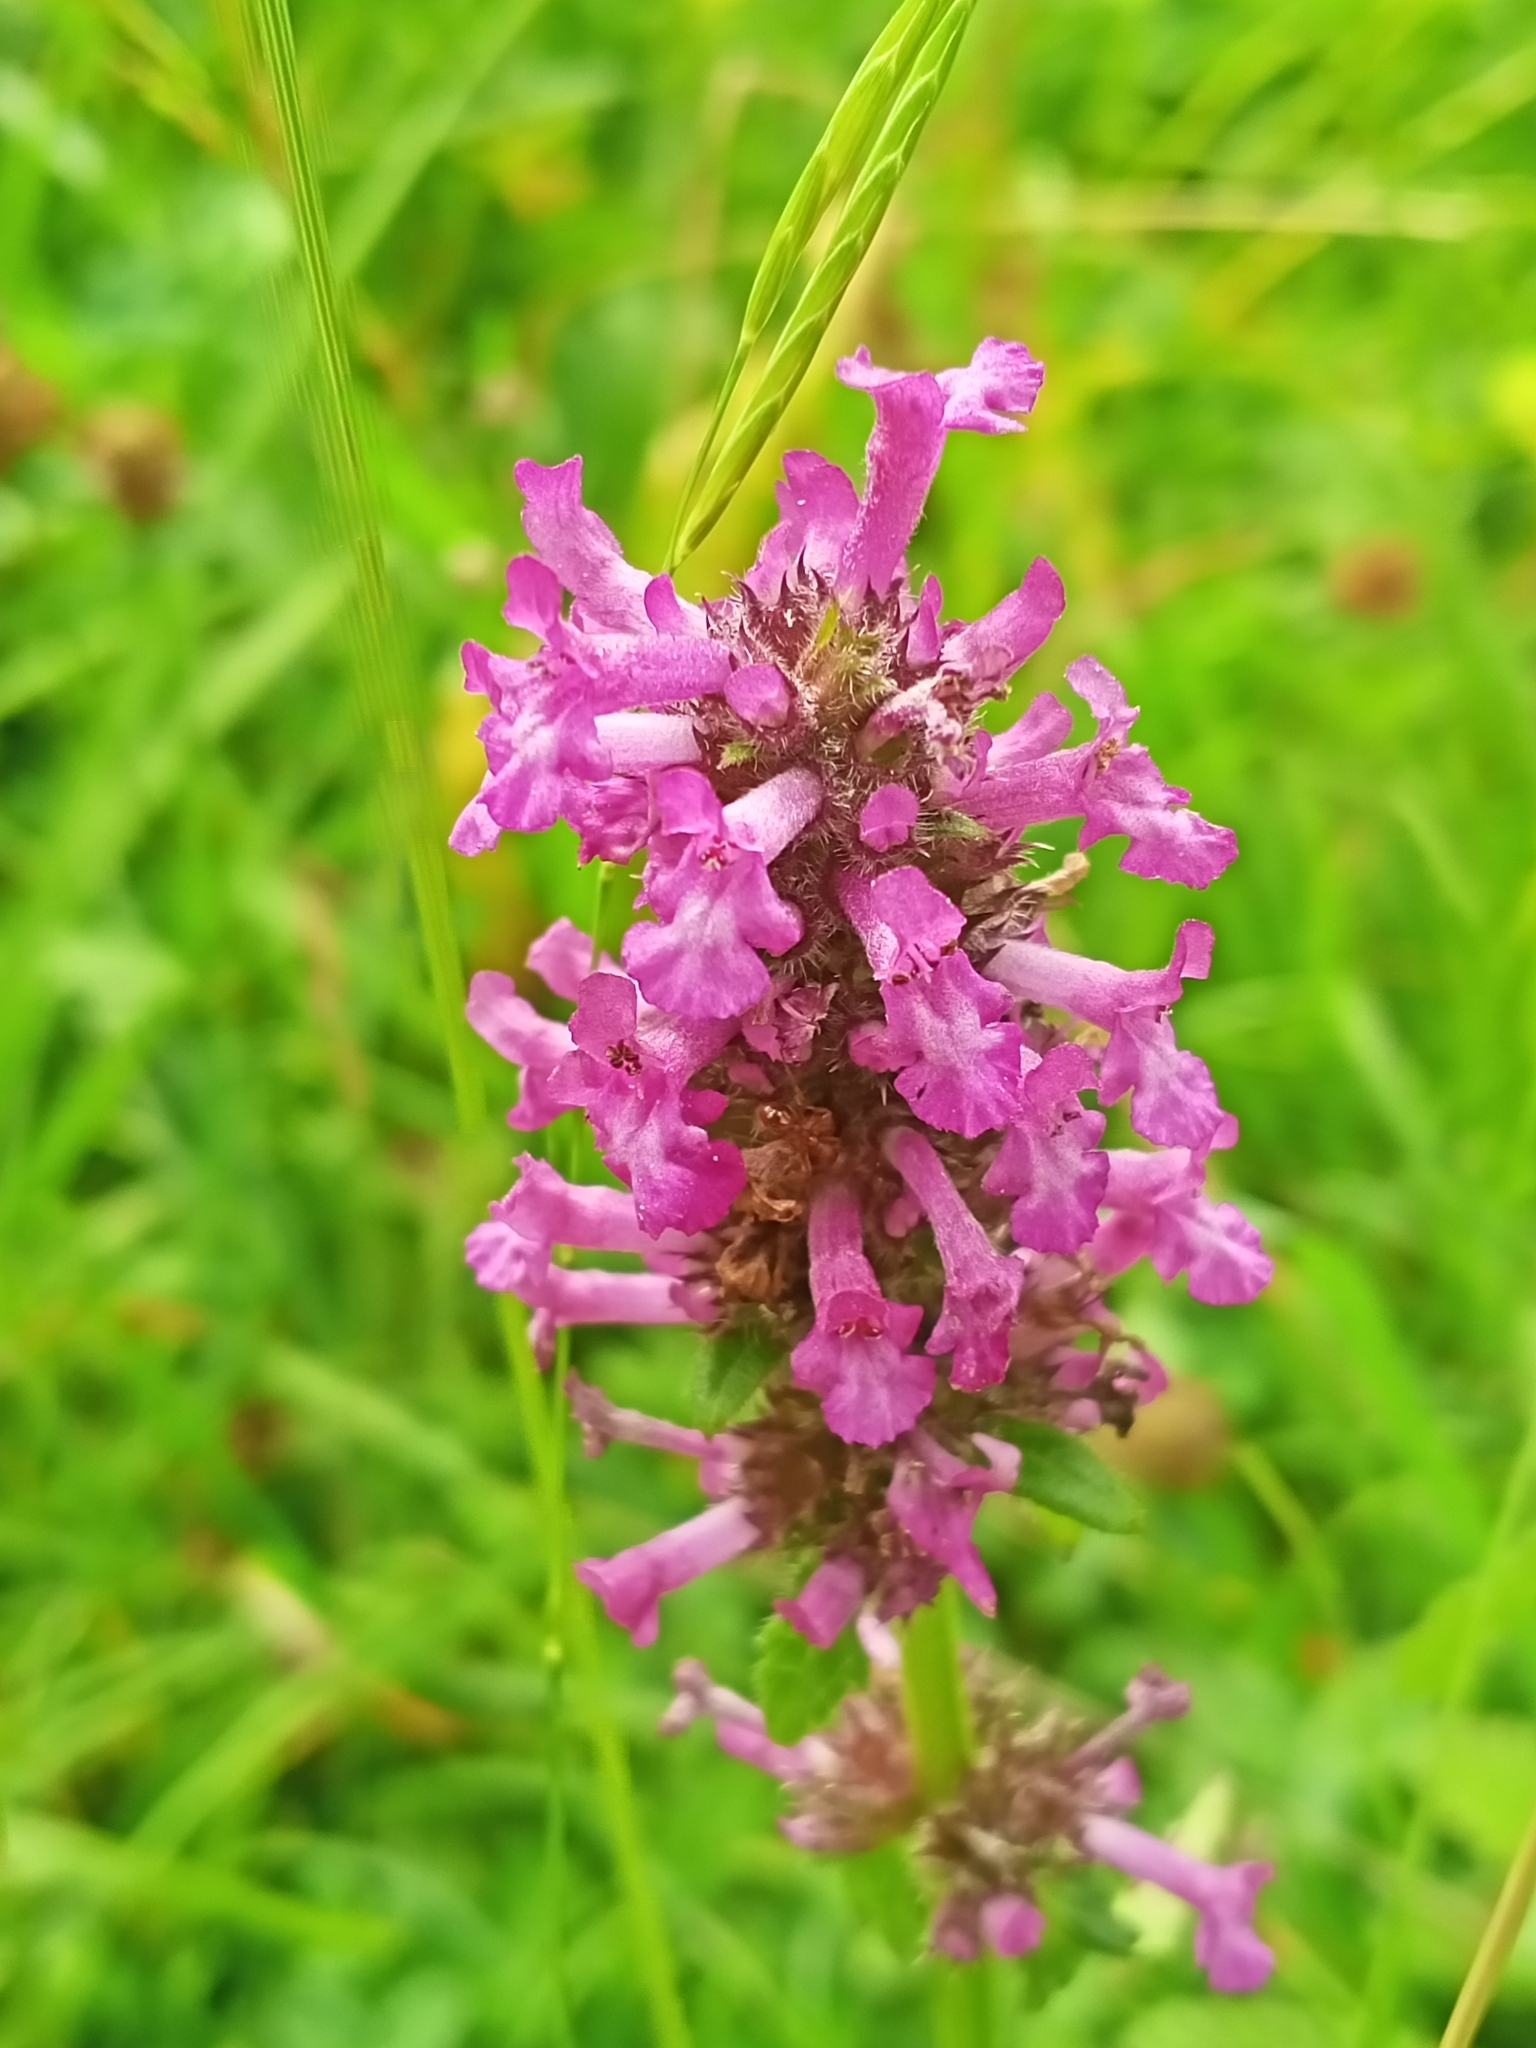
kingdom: Plantae
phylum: Tracheophyta
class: Magnoliopsida
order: Lamiales
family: Lamiaceae
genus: Betonica
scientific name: Betonica officinalis
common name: Bishop's-wort
